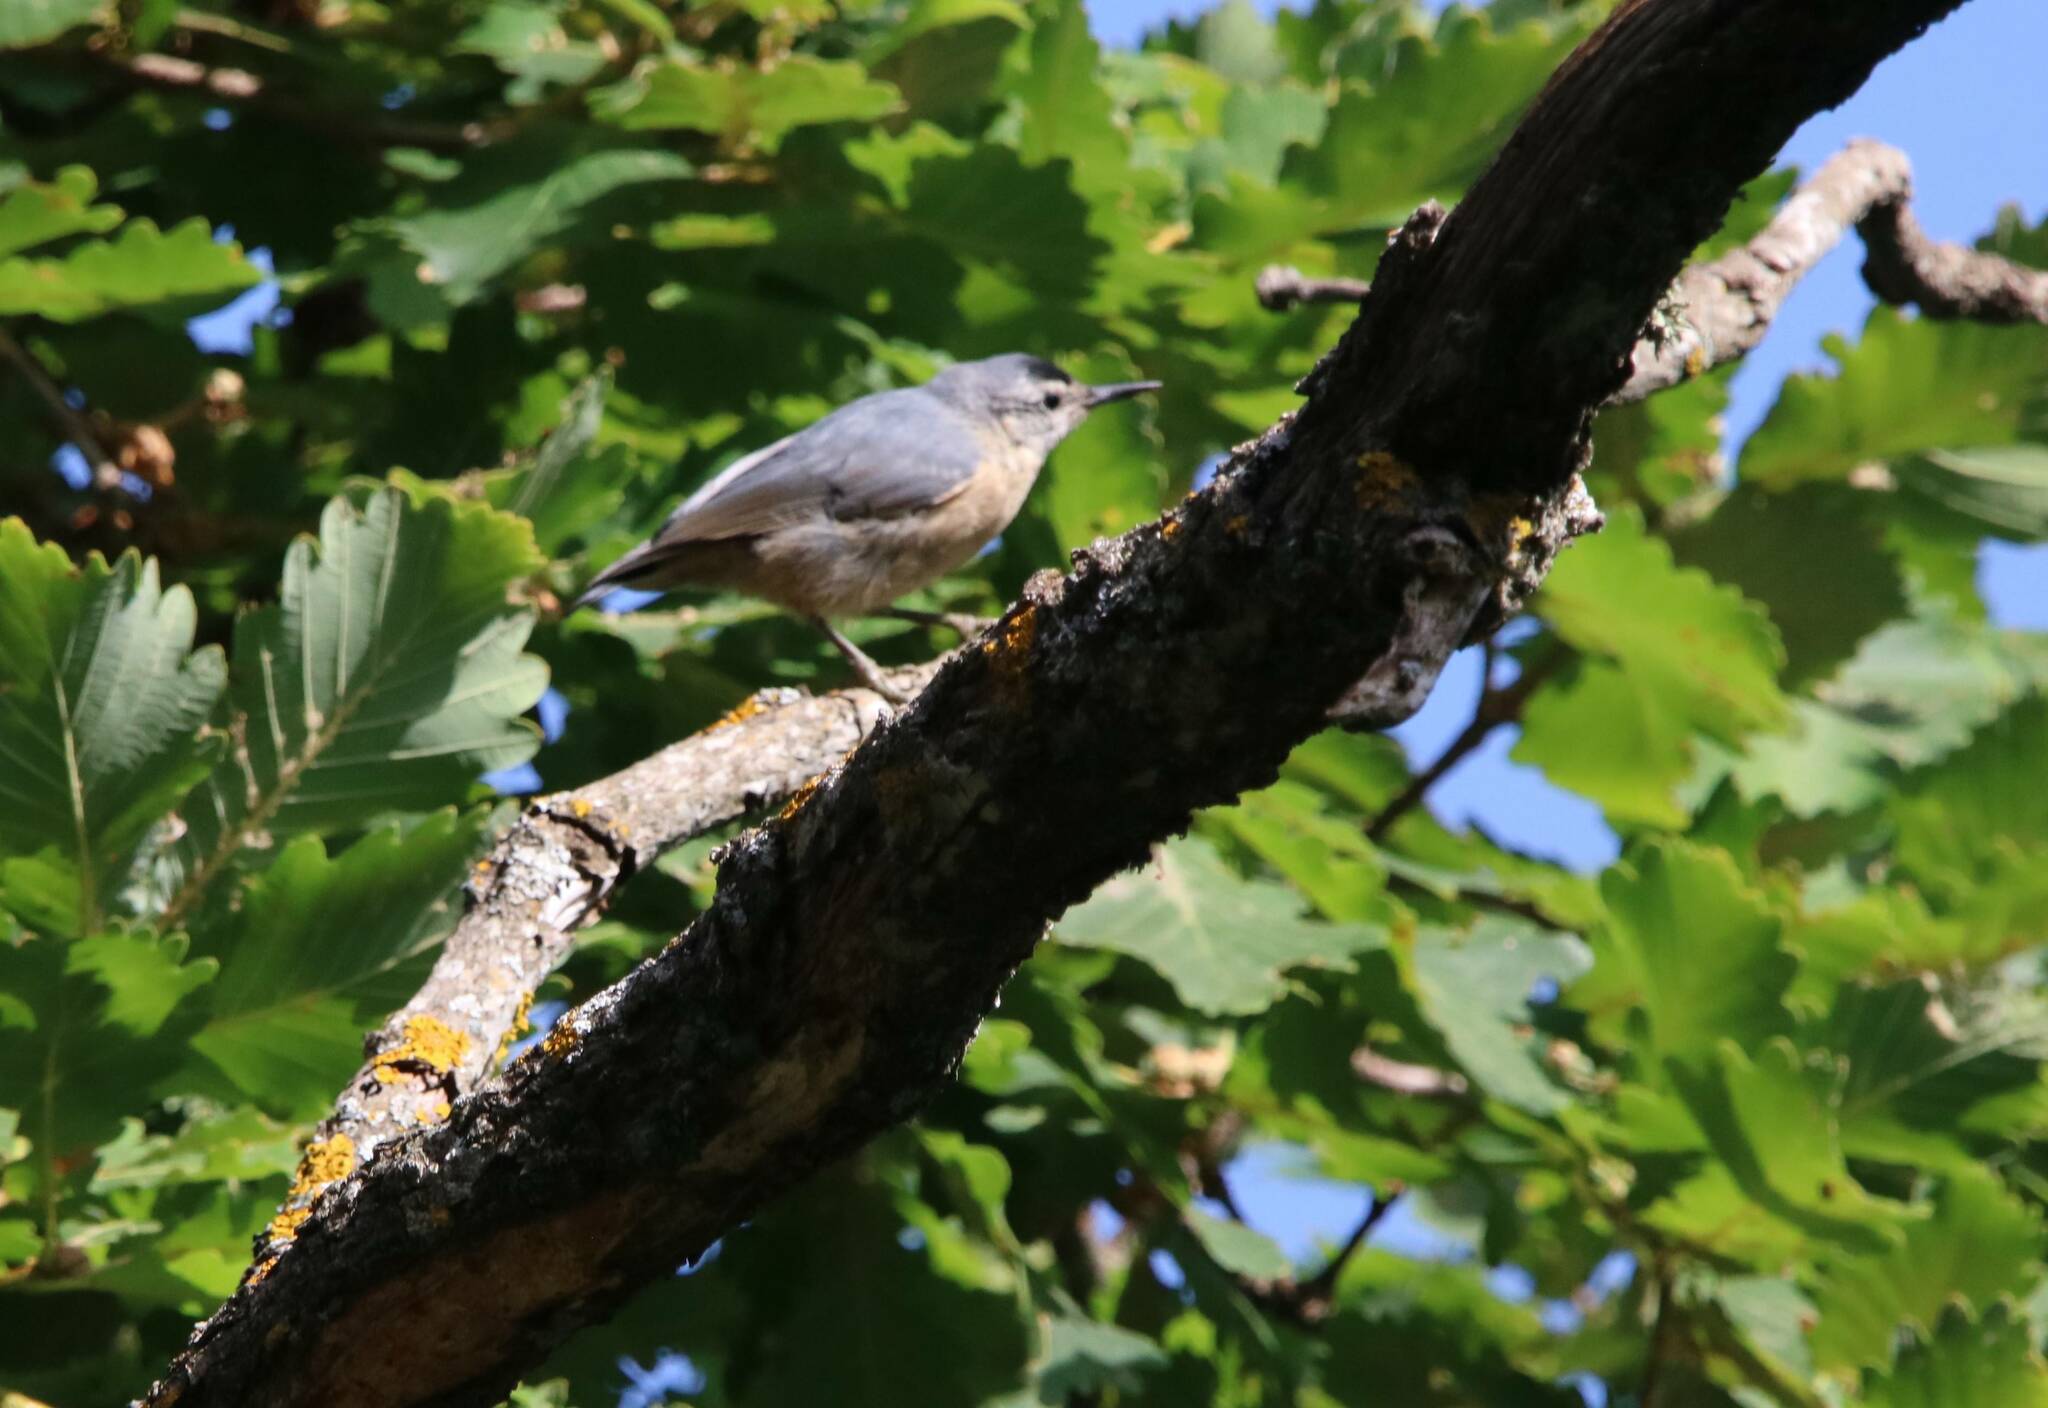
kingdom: Animalia
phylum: Chordata
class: Aves
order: Passeriformes
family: Sittidae
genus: Sitta
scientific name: Sitta ledanti
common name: Algerian nuthatch
